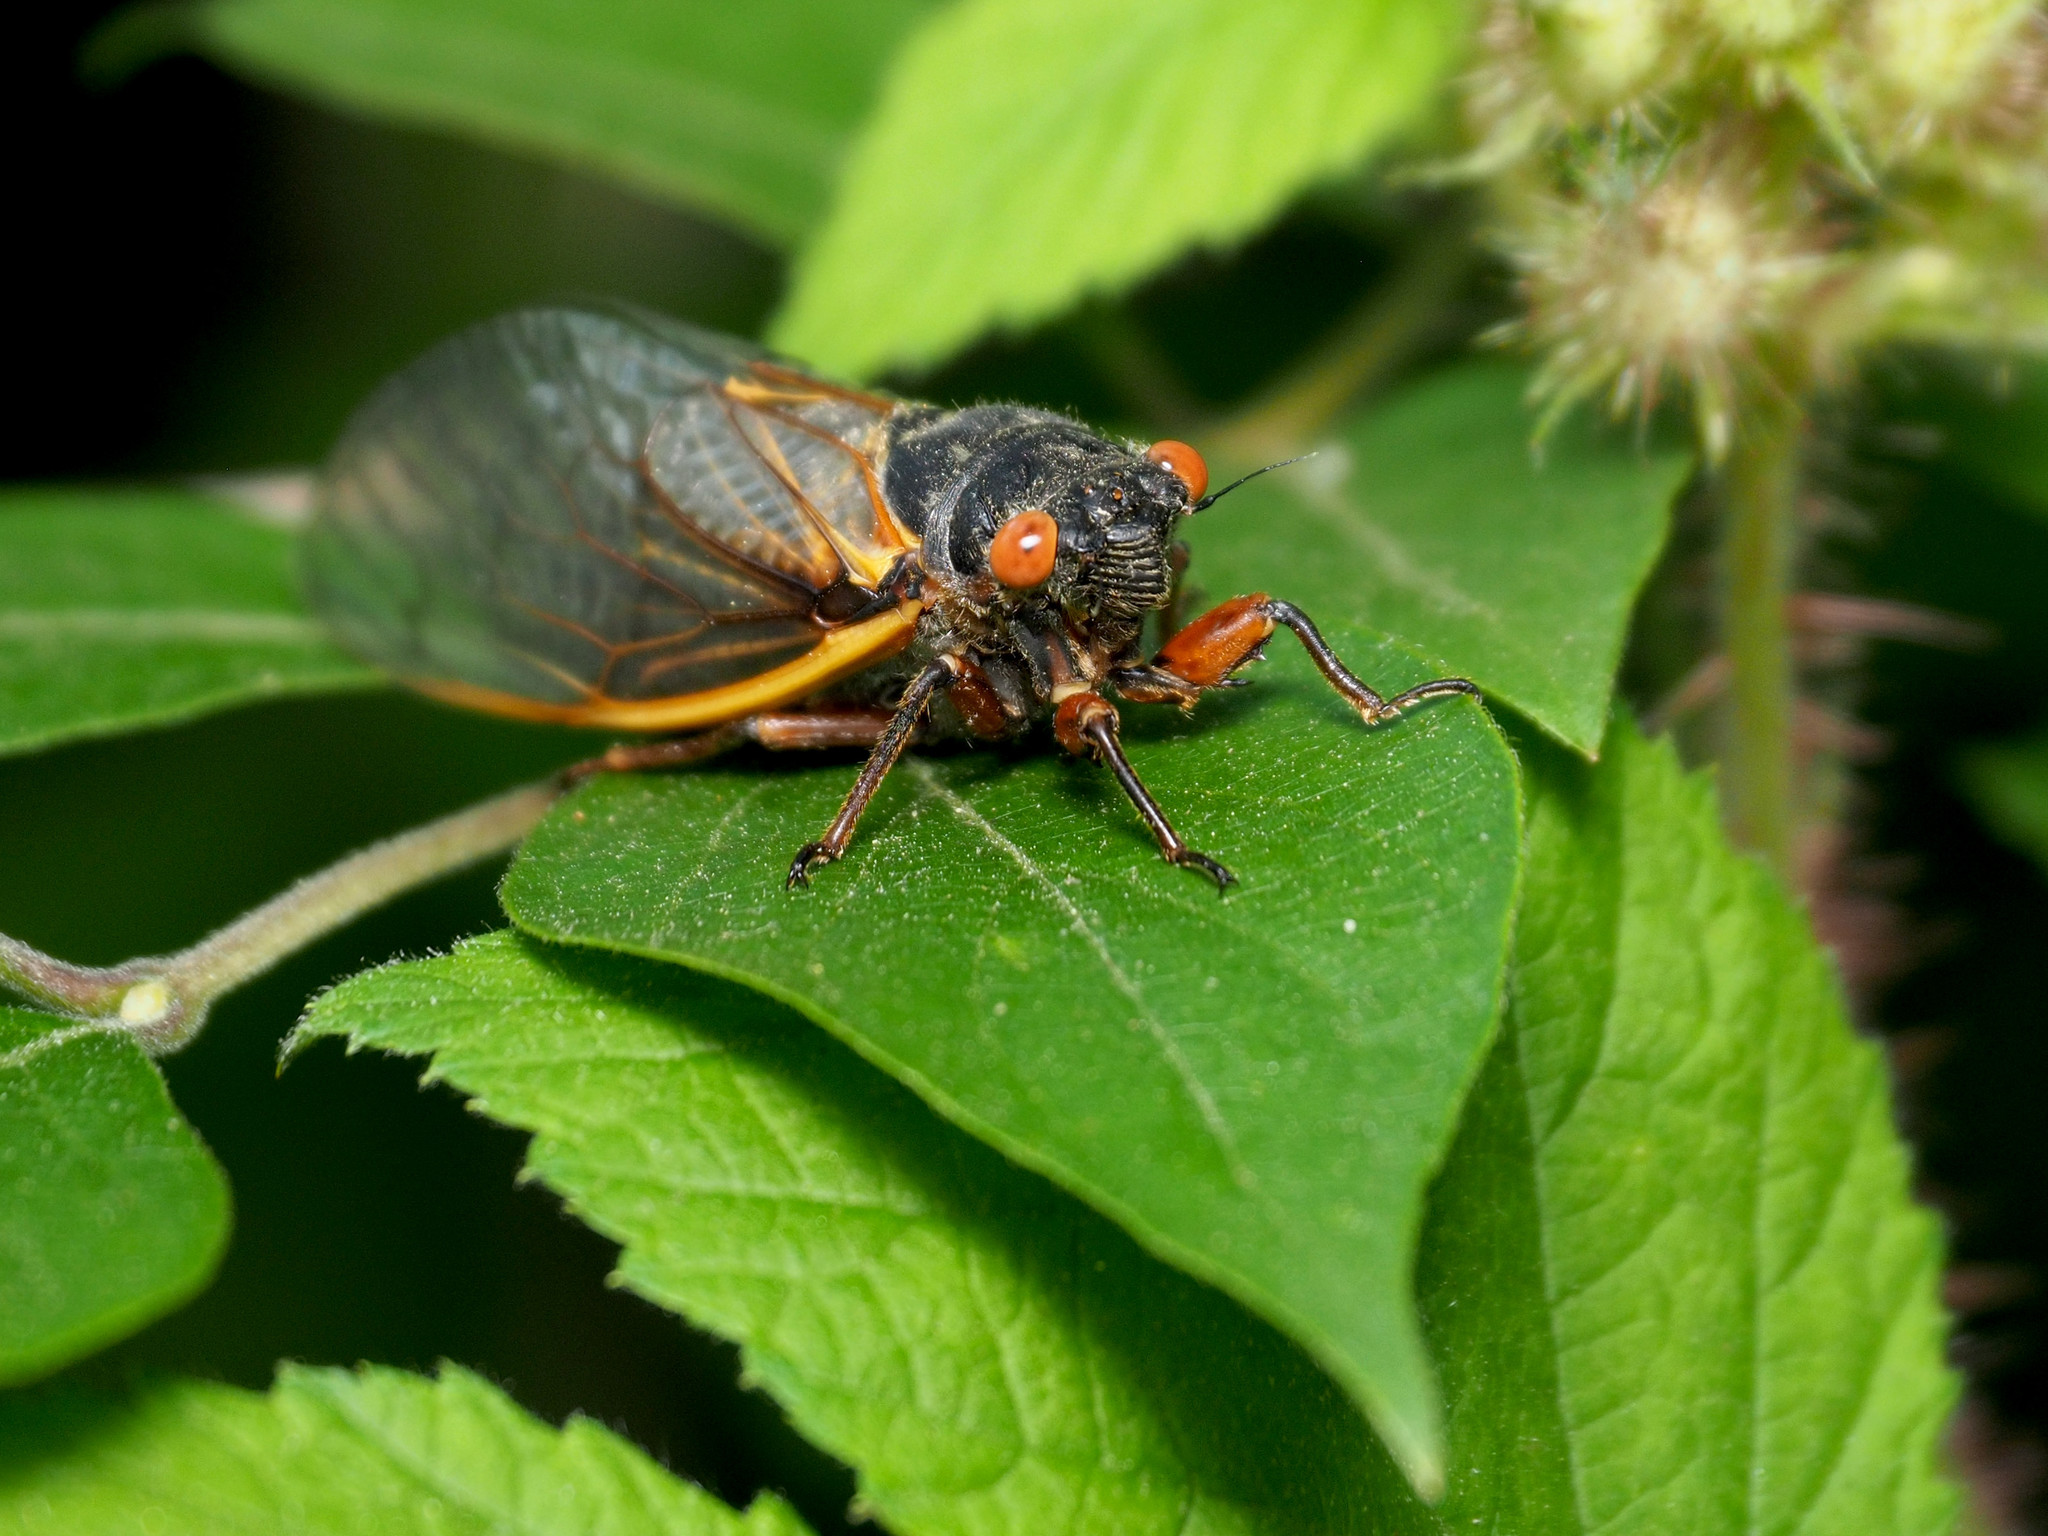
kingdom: Animalia
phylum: Arthropoda
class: Insecta
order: Hemiptera
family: Cicadidae
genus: Magicicada
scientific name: Magicicada septendecim
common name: Periodical cicada
